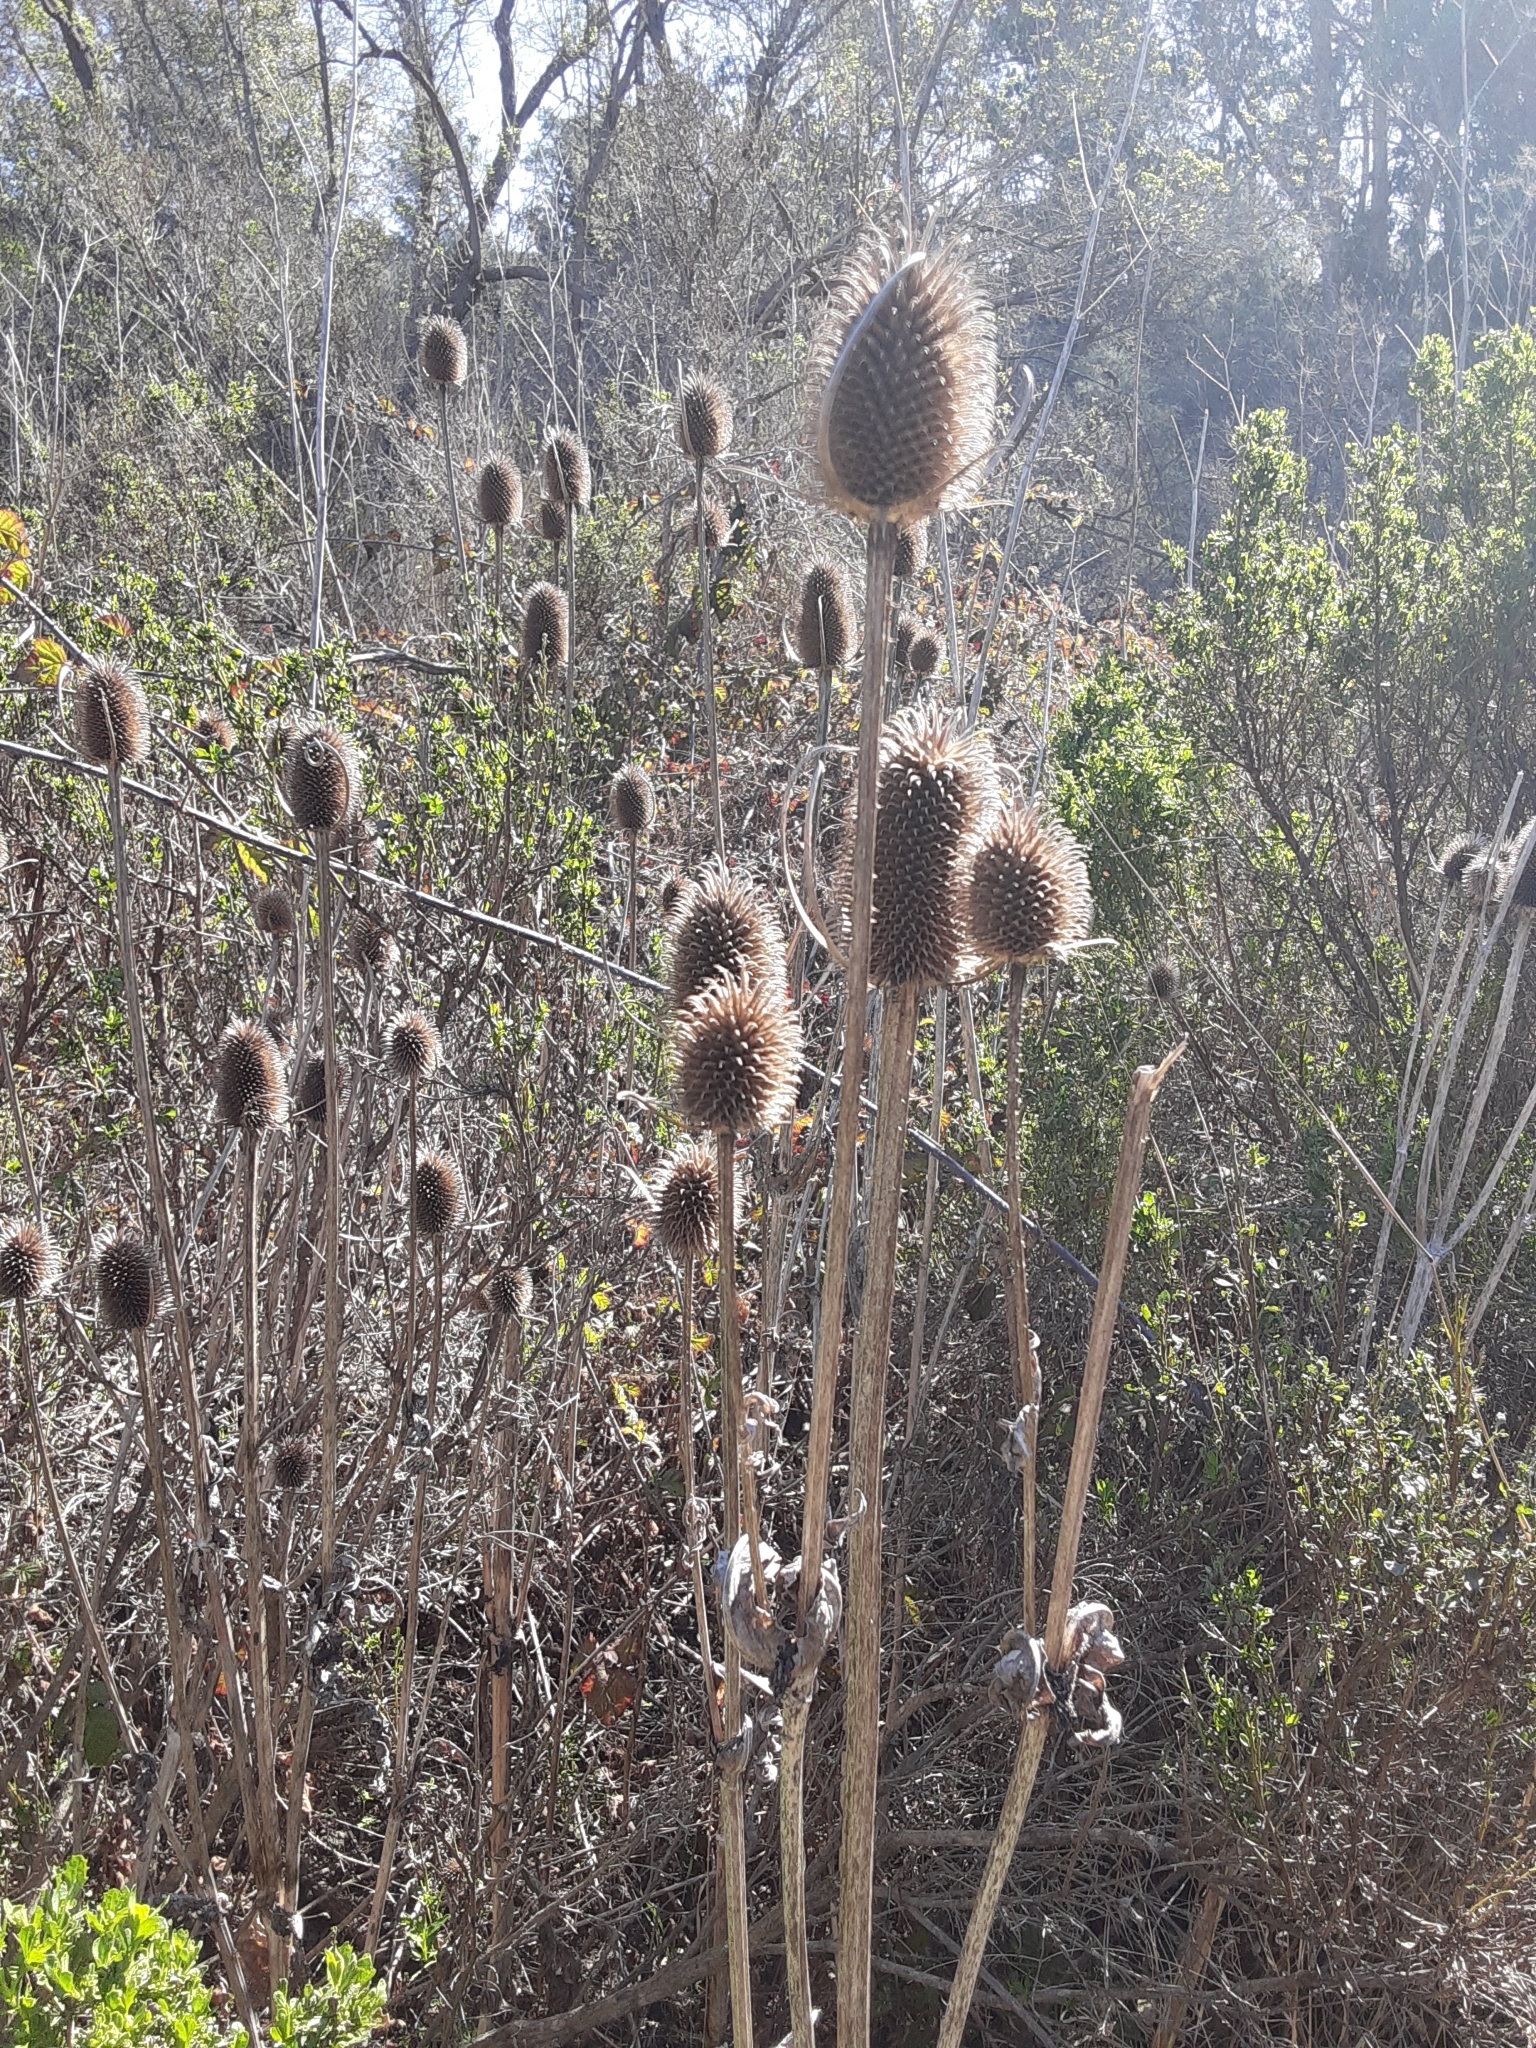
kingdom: Plantae
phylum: Tracheophyta
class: Magnoliopsida
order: Dipsacales
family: Caprifoliaceae
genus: Dipsacus
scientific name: Dipsacus sativus
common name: Fuller's teasel
